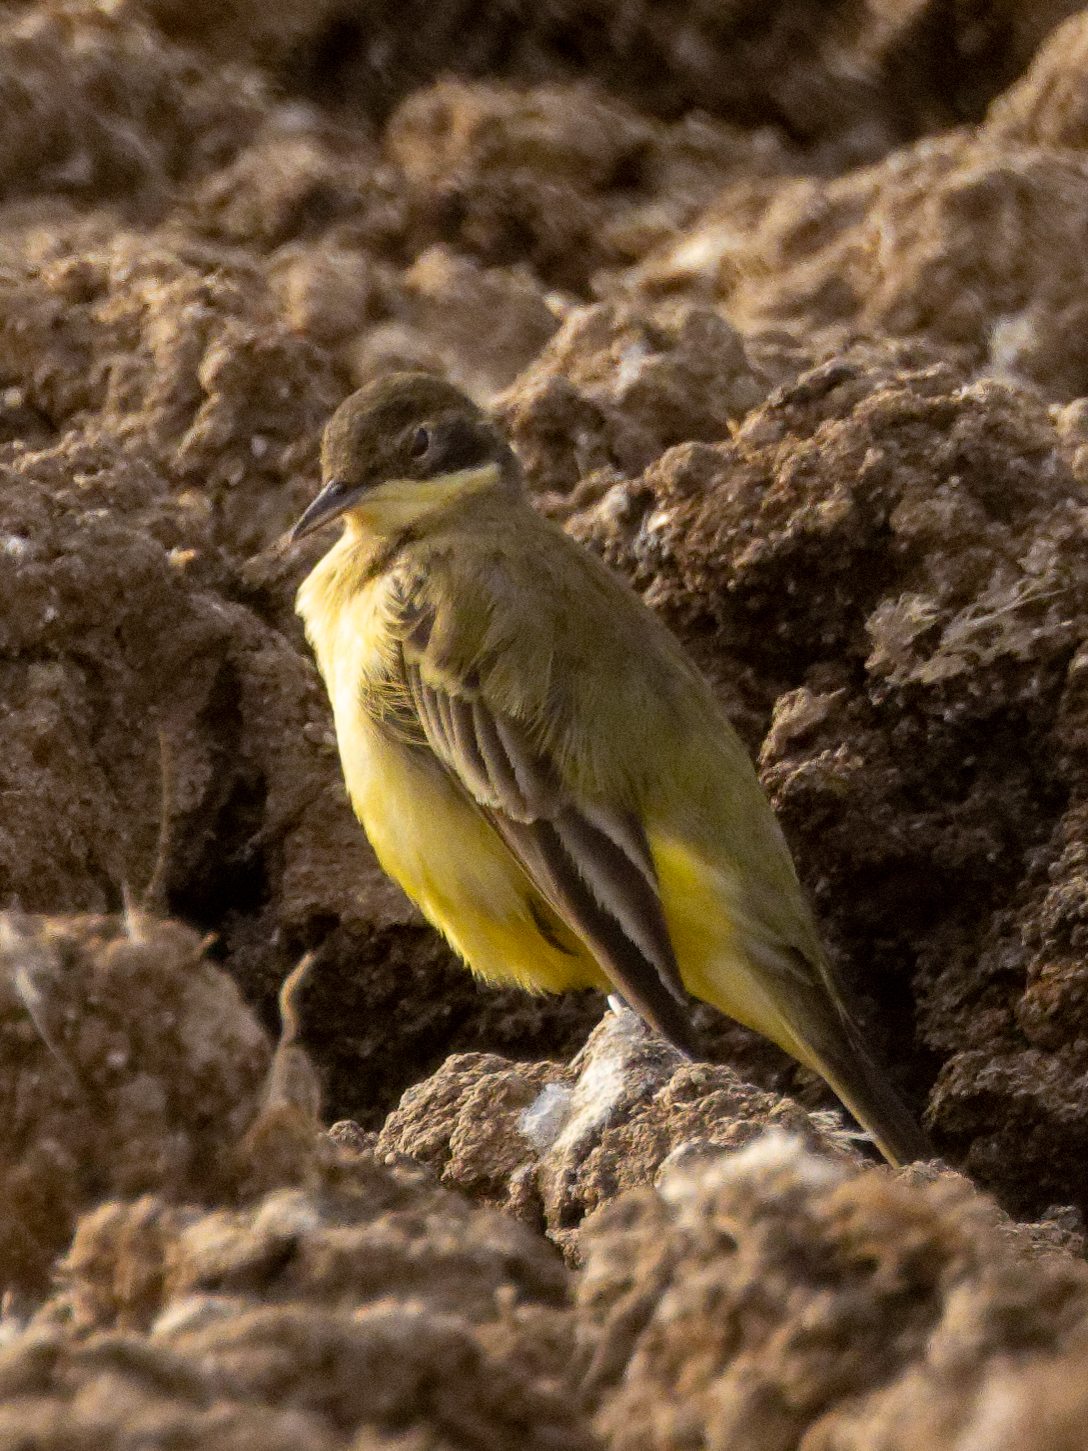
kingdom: Animalia
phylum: Chordata
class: Aves
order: Passeriformes
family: Motacillidae
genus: Motacilla
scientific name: Motacilla flava
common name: Western yellow wagtail
